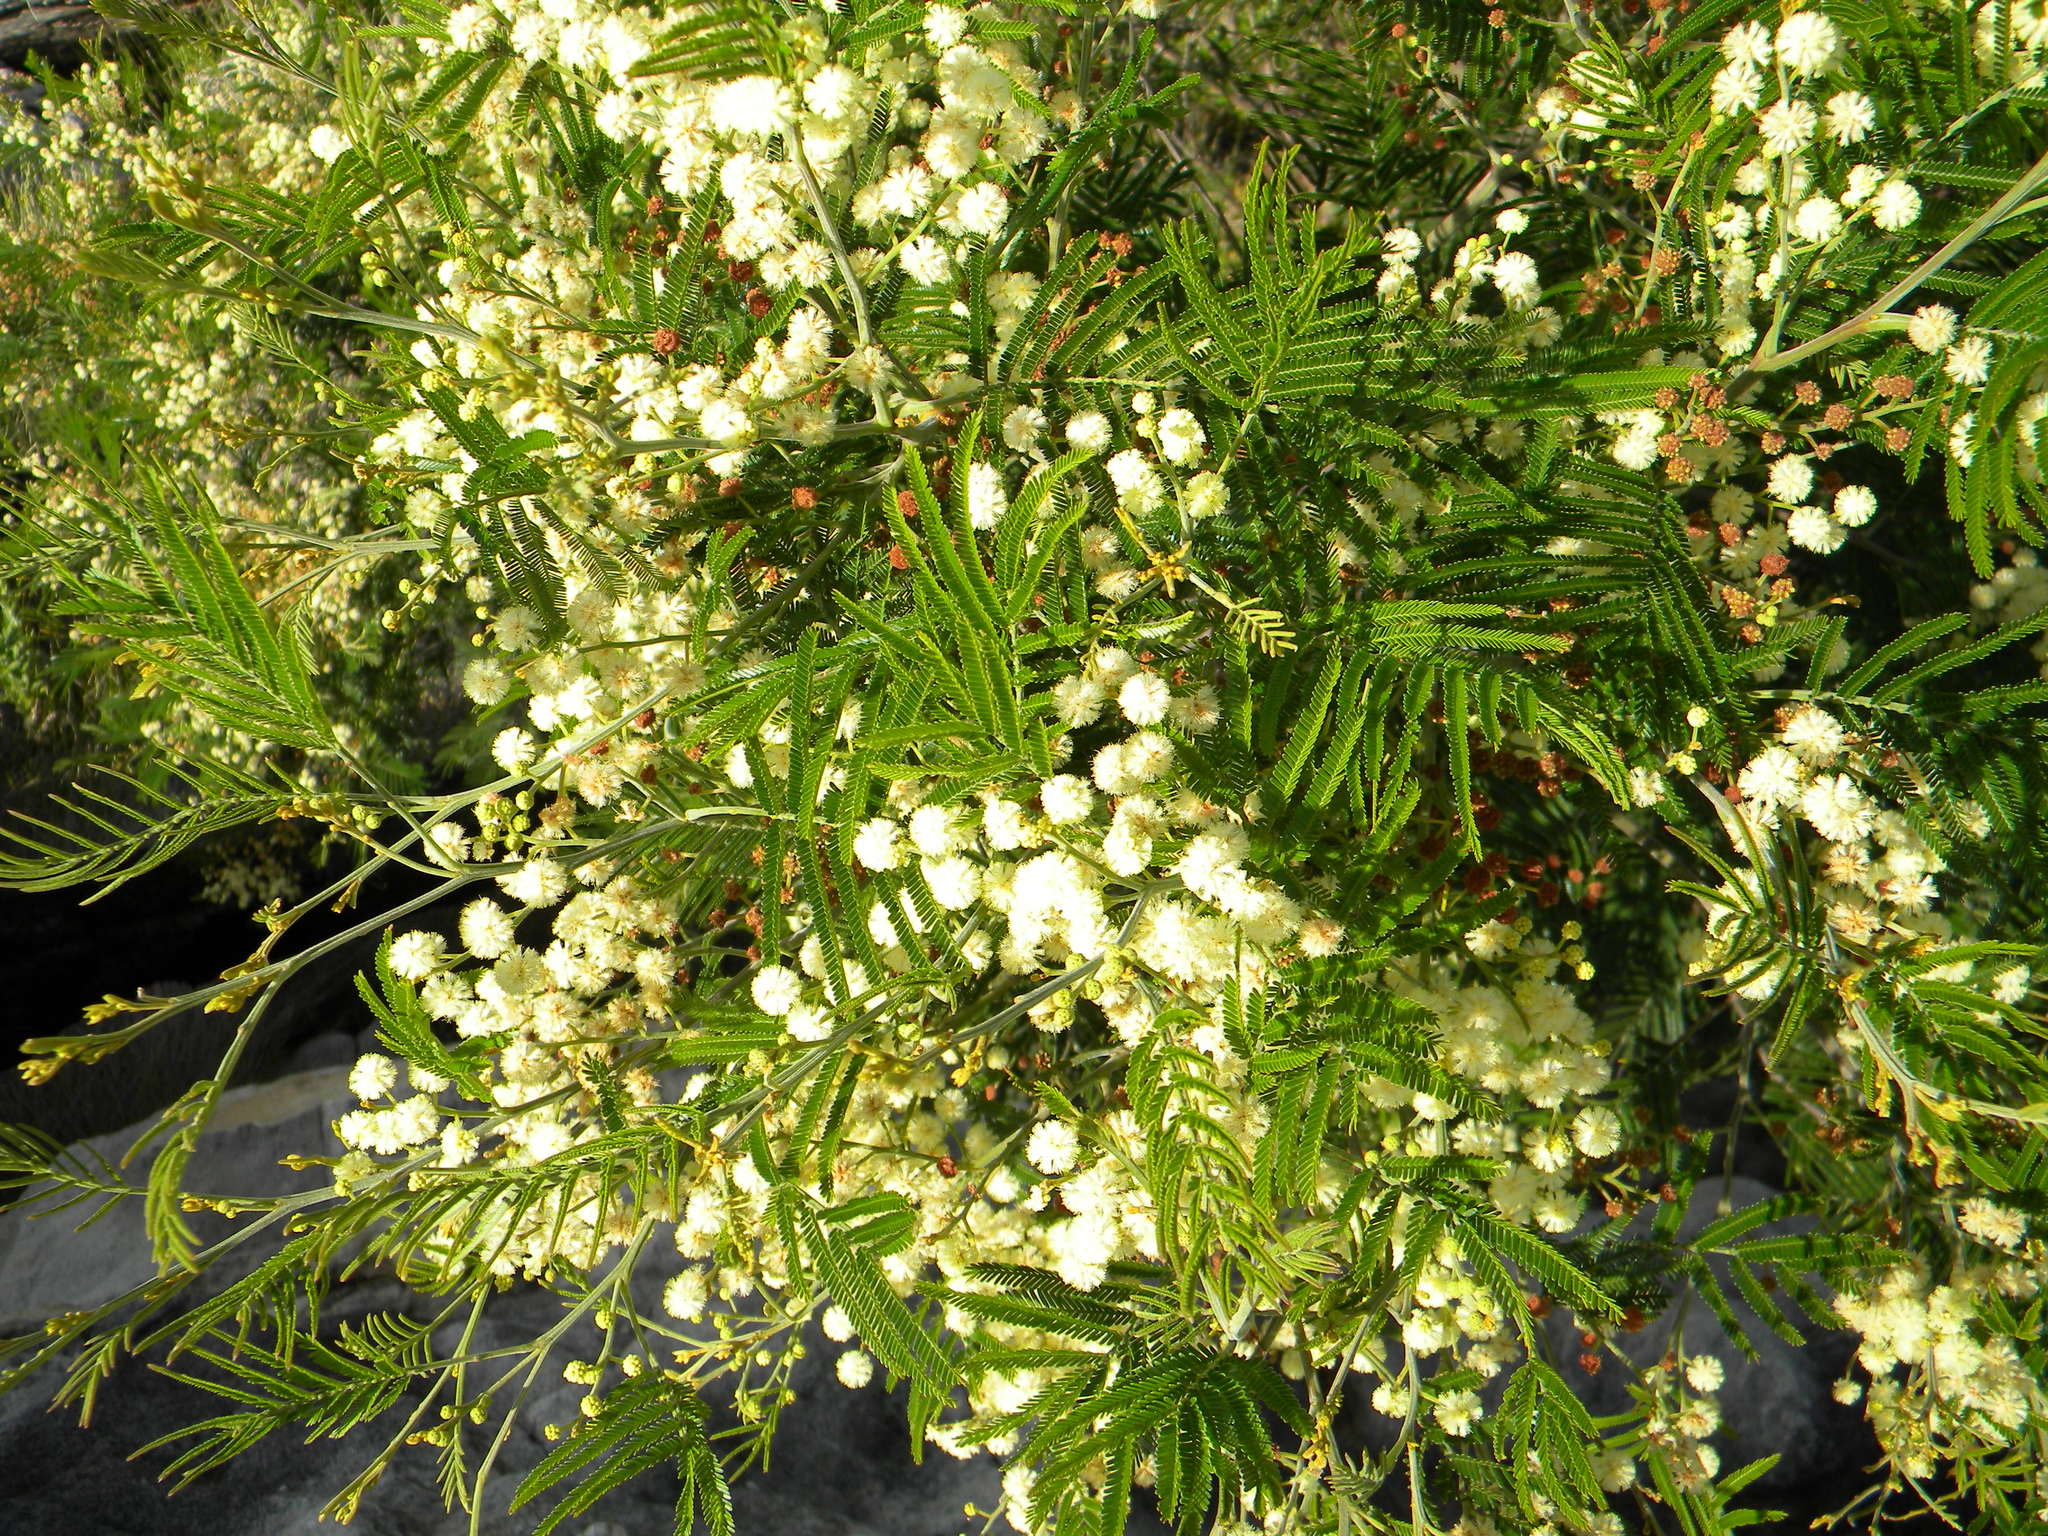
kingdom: Plantae
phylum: Tracheophyta
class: Magnoliopsida
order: Fabales
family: Fabaceae
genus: Acacia
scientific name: Acacia mearnsii
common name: Black wattle
